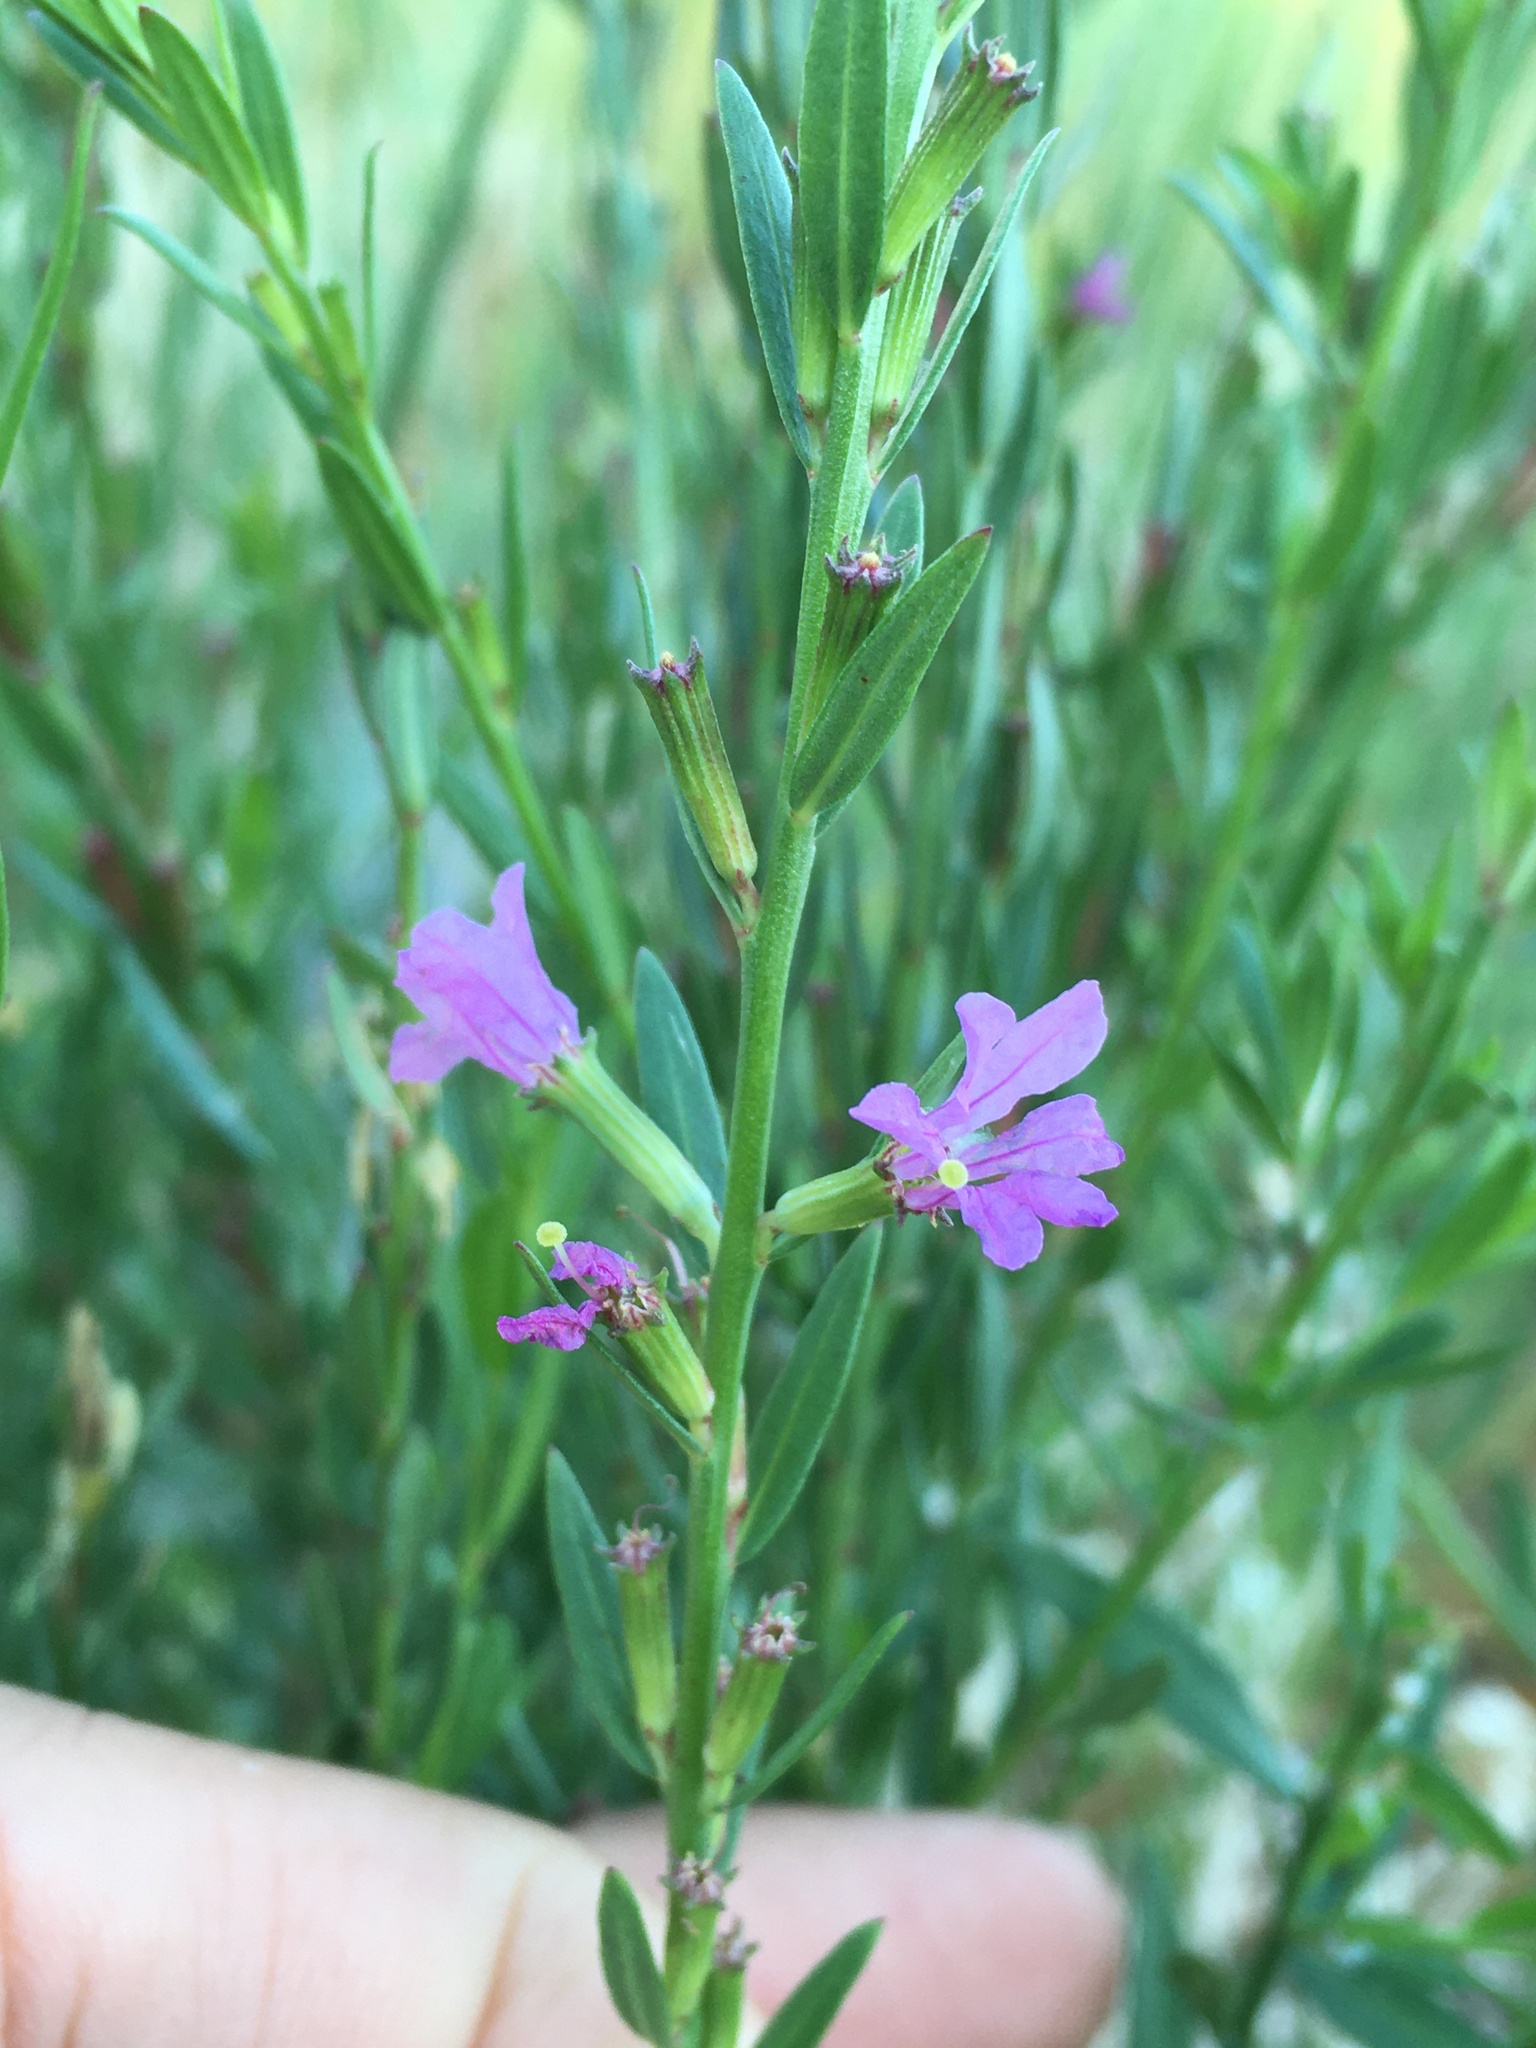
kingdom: Plantae
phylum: Tracheophyta
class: Magnoliopsida
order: Myrtales
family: Lythraceae
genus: Lythrum
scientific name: Lythrum californicum
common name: California loosestrife
